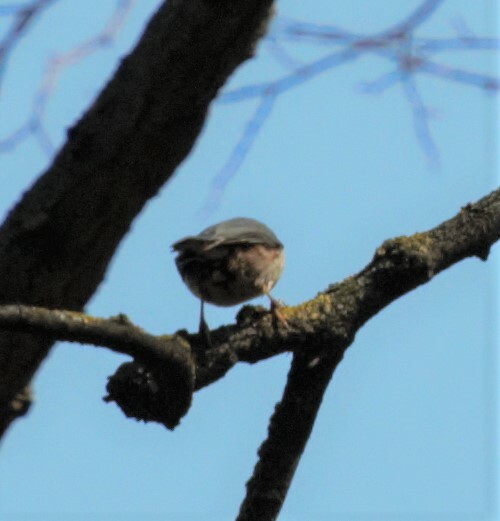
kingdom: Animalia
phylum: Chordata
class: Aves
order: Passeriformes
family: Sittidae
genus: Sitta
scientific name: Sitta europaea
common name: Eurasian nuthatch
